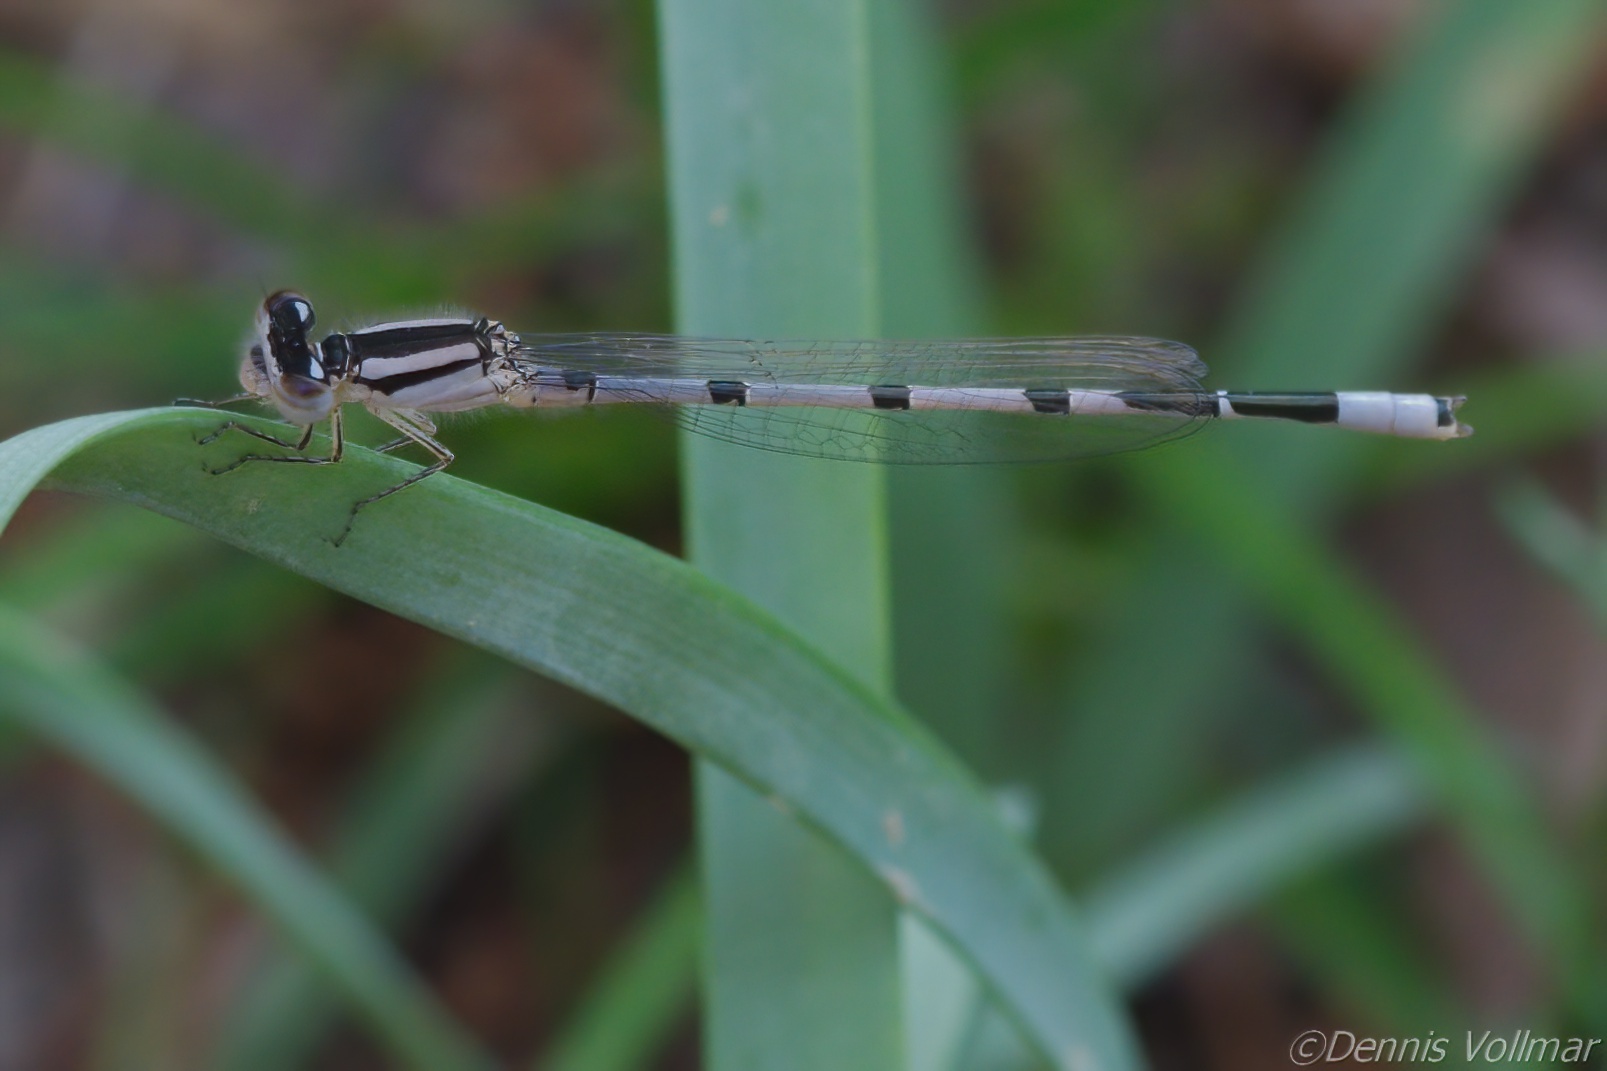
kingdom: Animalia
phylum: Arthropoda
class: Insecta
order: Odonata
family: Coenagrionidae
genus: Enallagma
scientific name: Enallagma civile
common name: Damselfly
